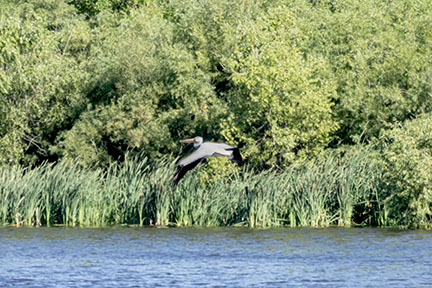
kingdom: Animalia
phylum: Chordata
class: Aves
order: Pelecaniformes
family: Pelecanidae
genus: Pelecanus
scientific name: Pelecanus erythrorhynchos
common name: American white pelican
